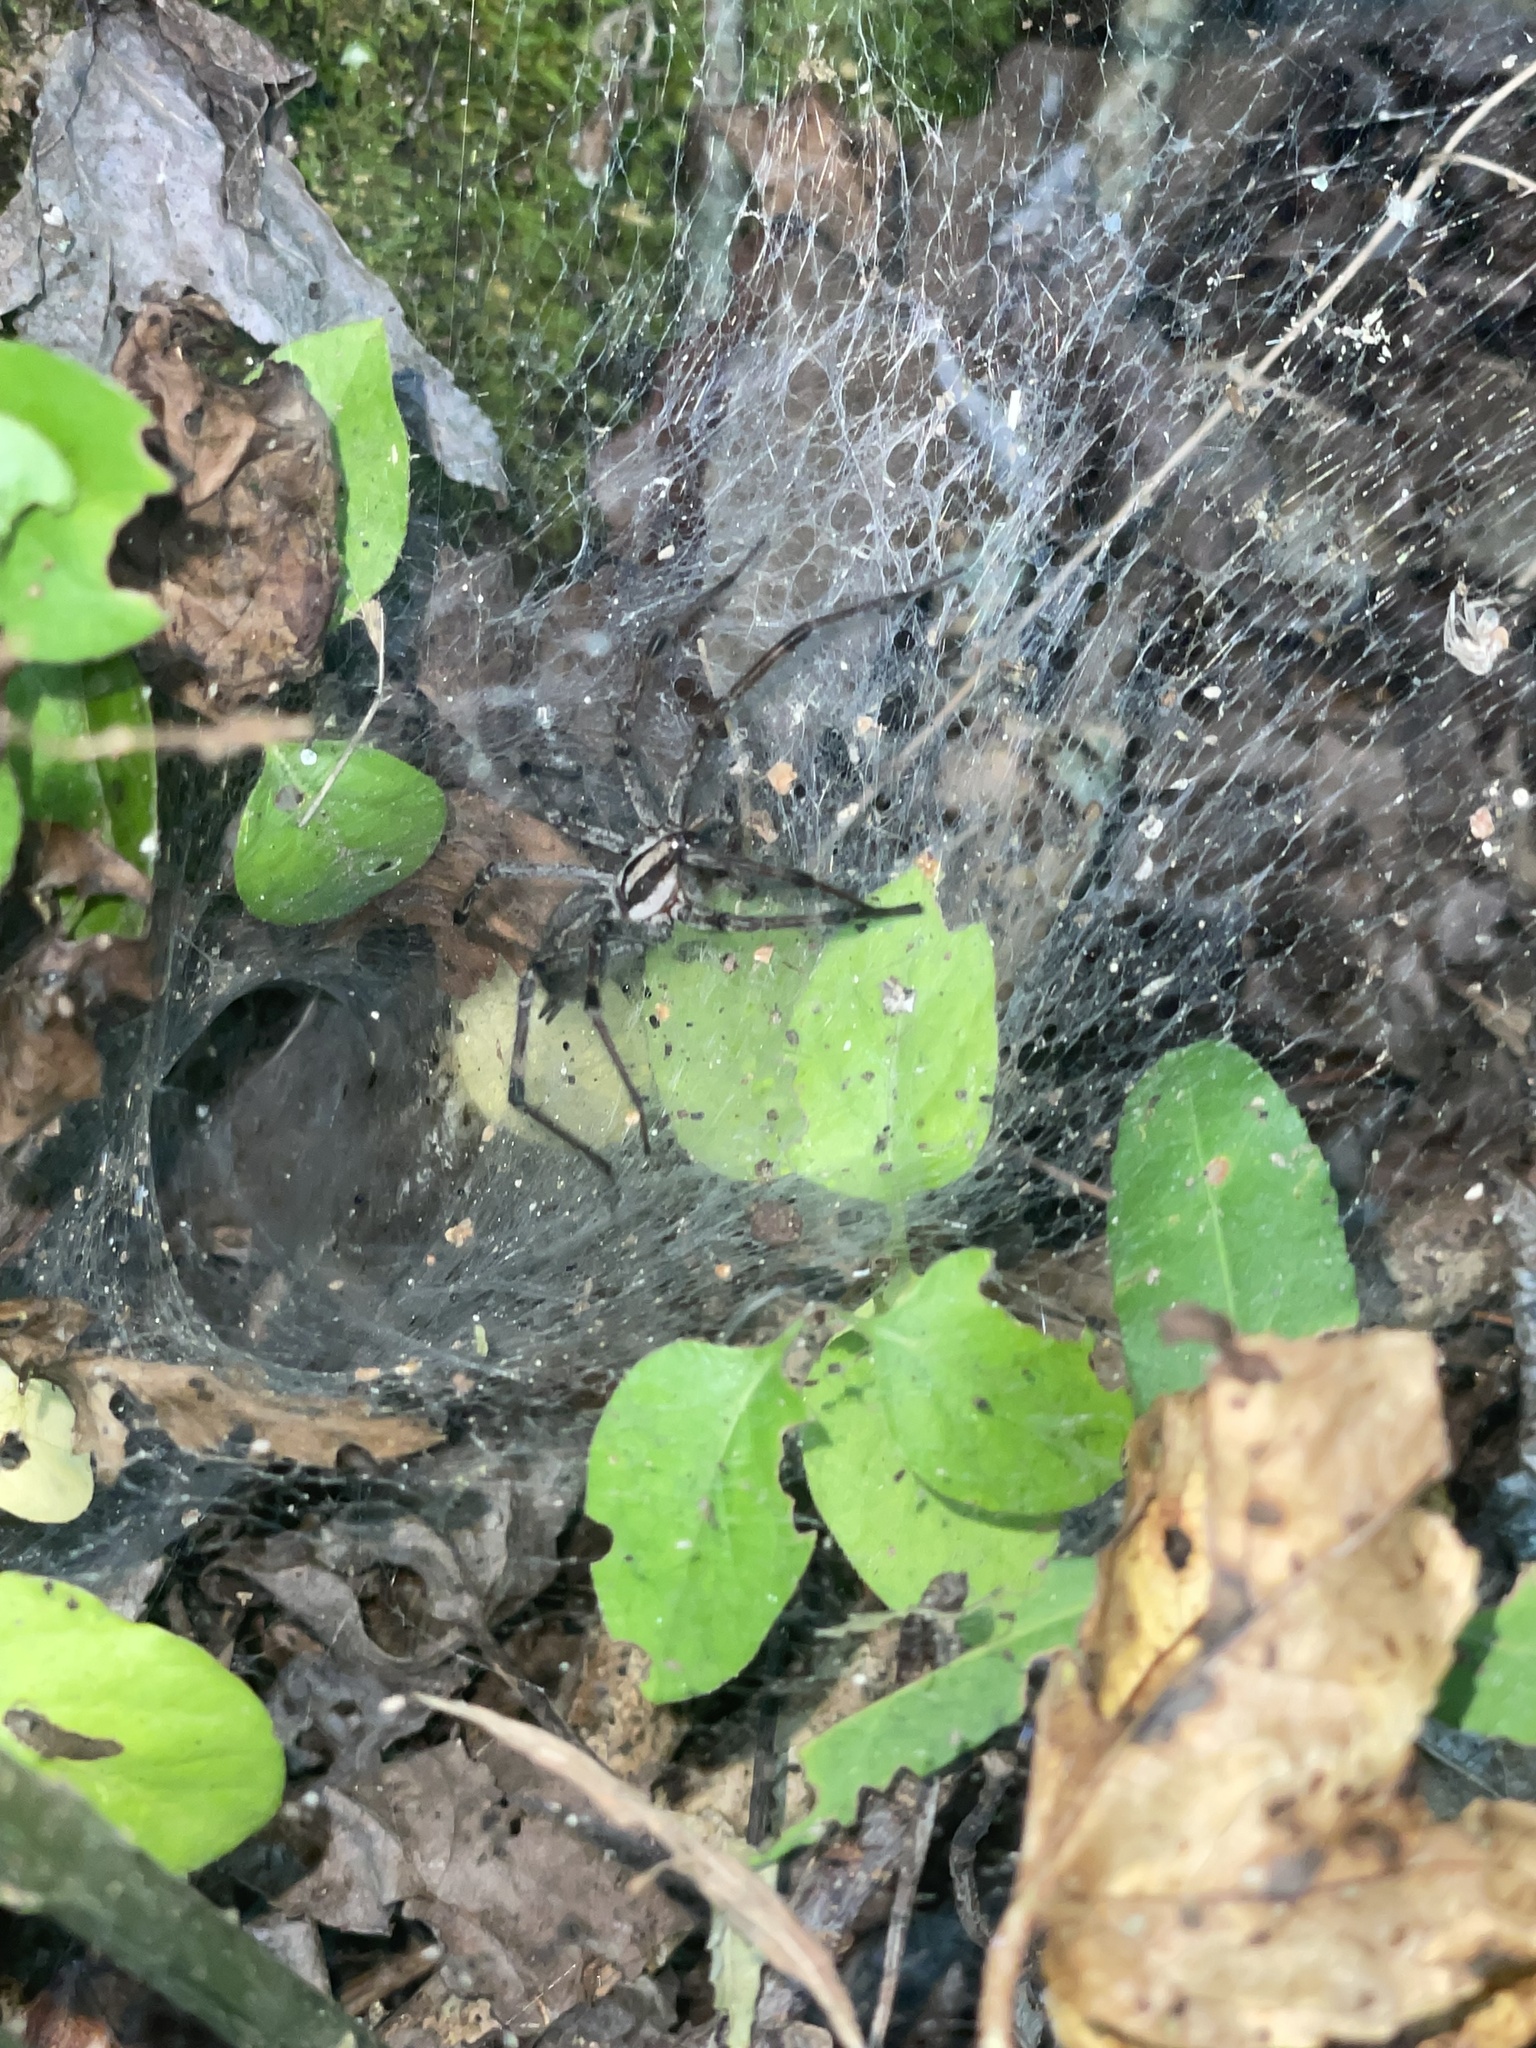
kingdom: Animalia
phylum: Arthropoda
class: Arachnida
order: Araneae
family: Agelenidae
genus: Agelenopsis
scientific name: Agelenopsis
